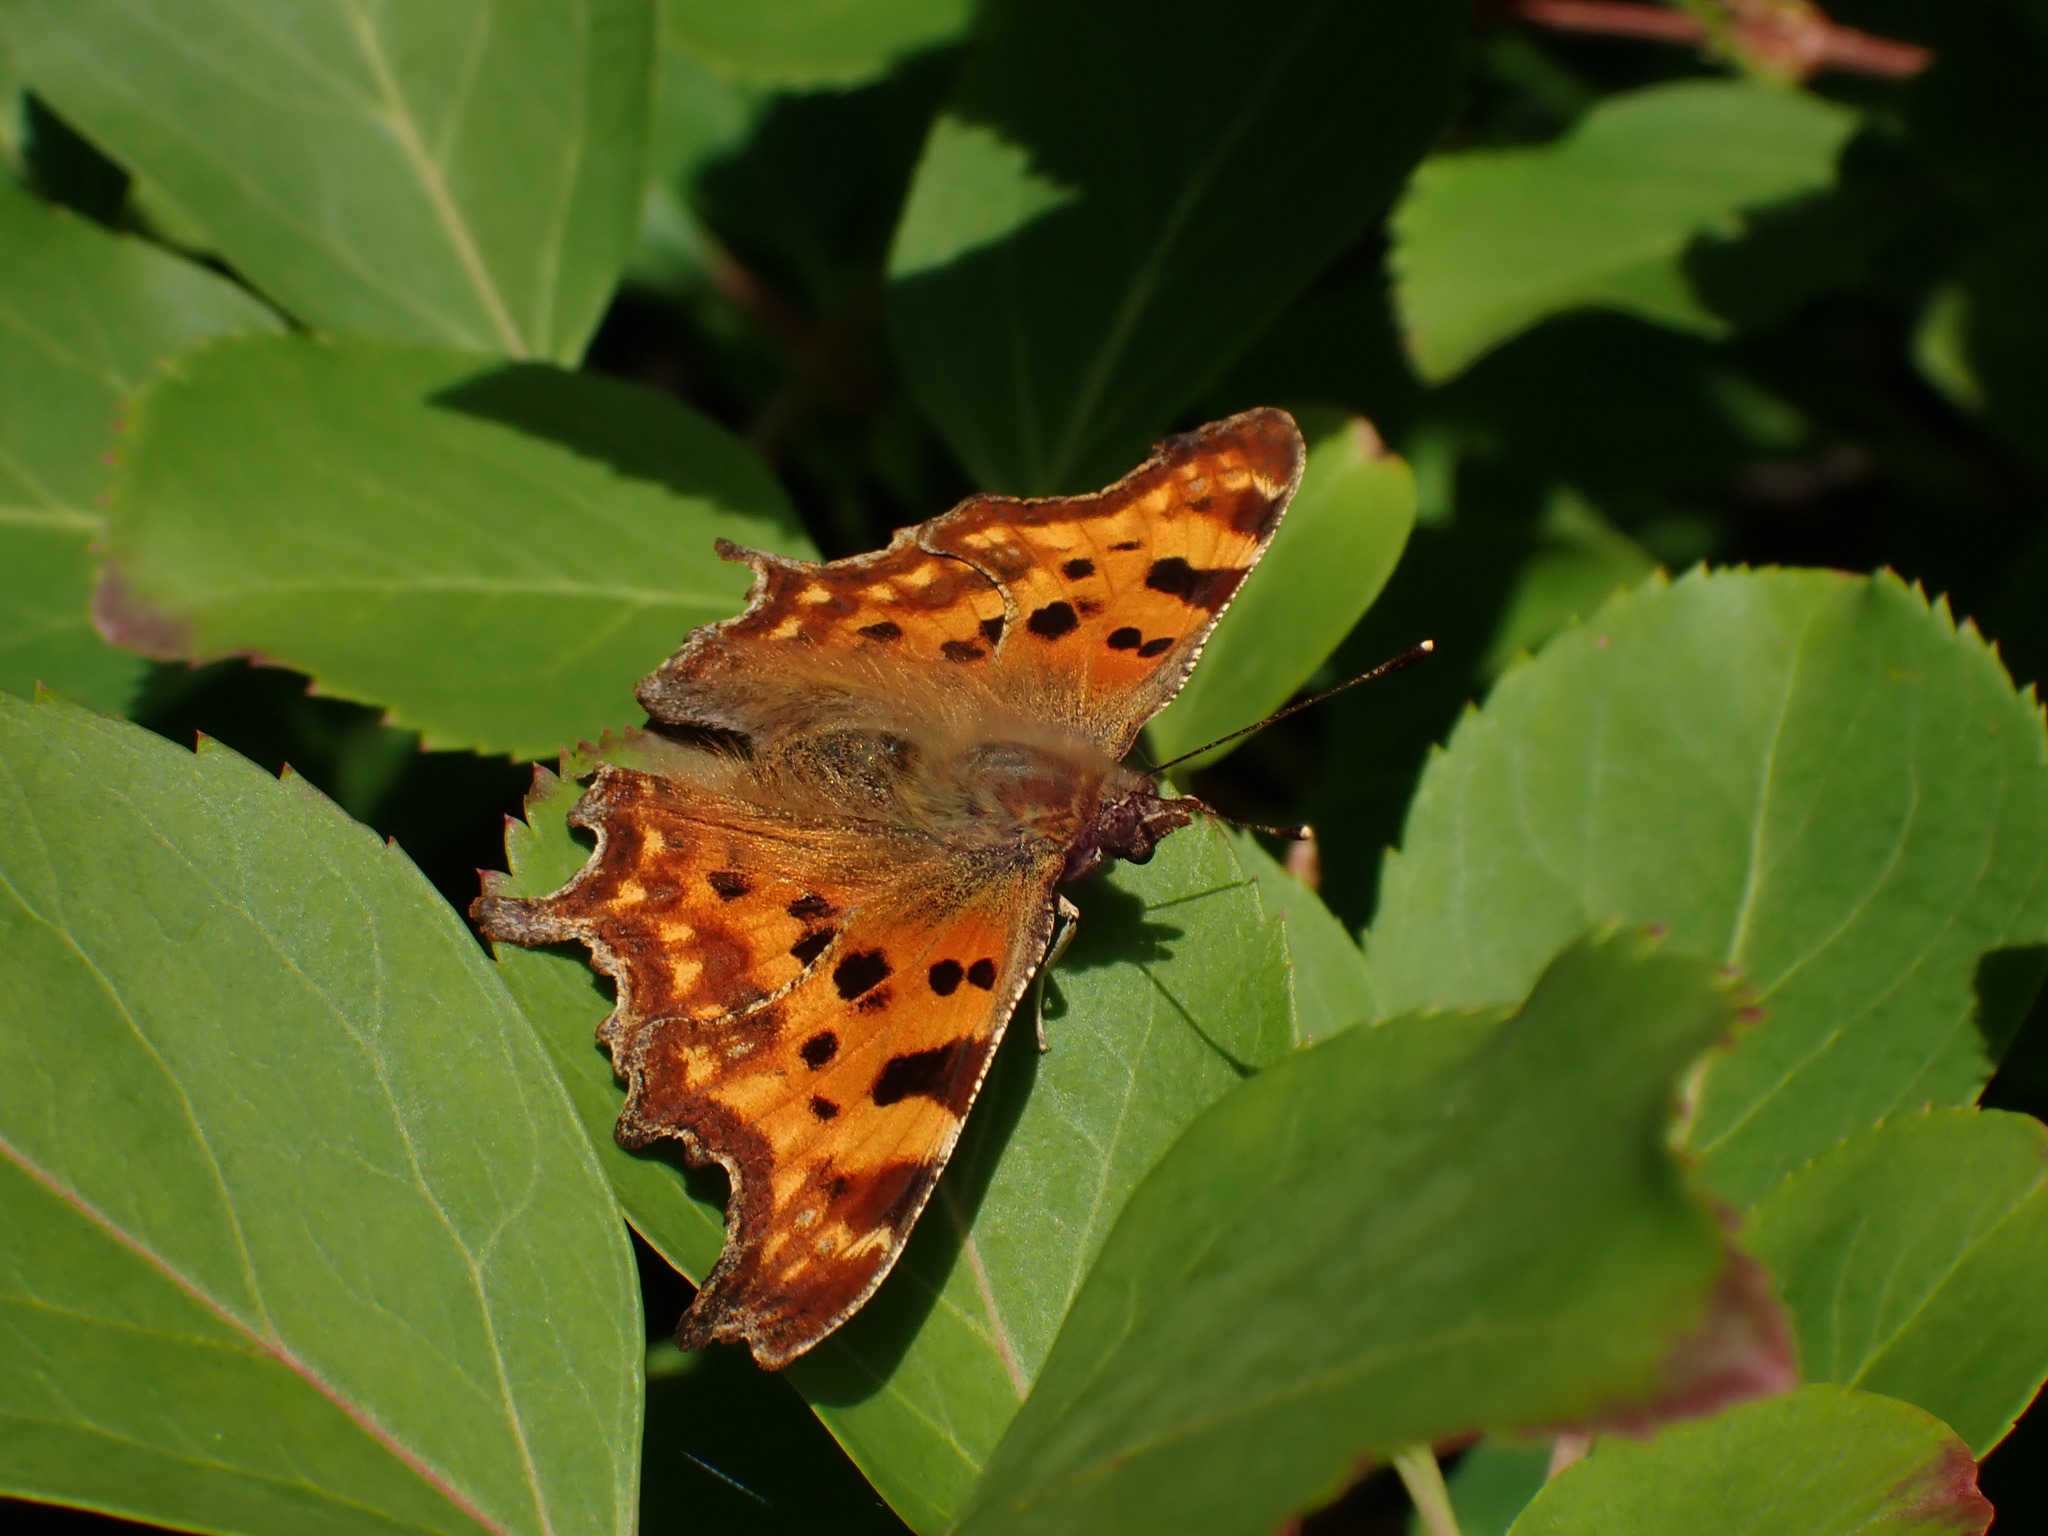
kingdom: Animalia
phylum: Arthropoda
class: Insecta
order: Lepidoptera
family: Nymphalidae
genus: Polygonia
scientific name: Polygonia c-album
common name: Comma
